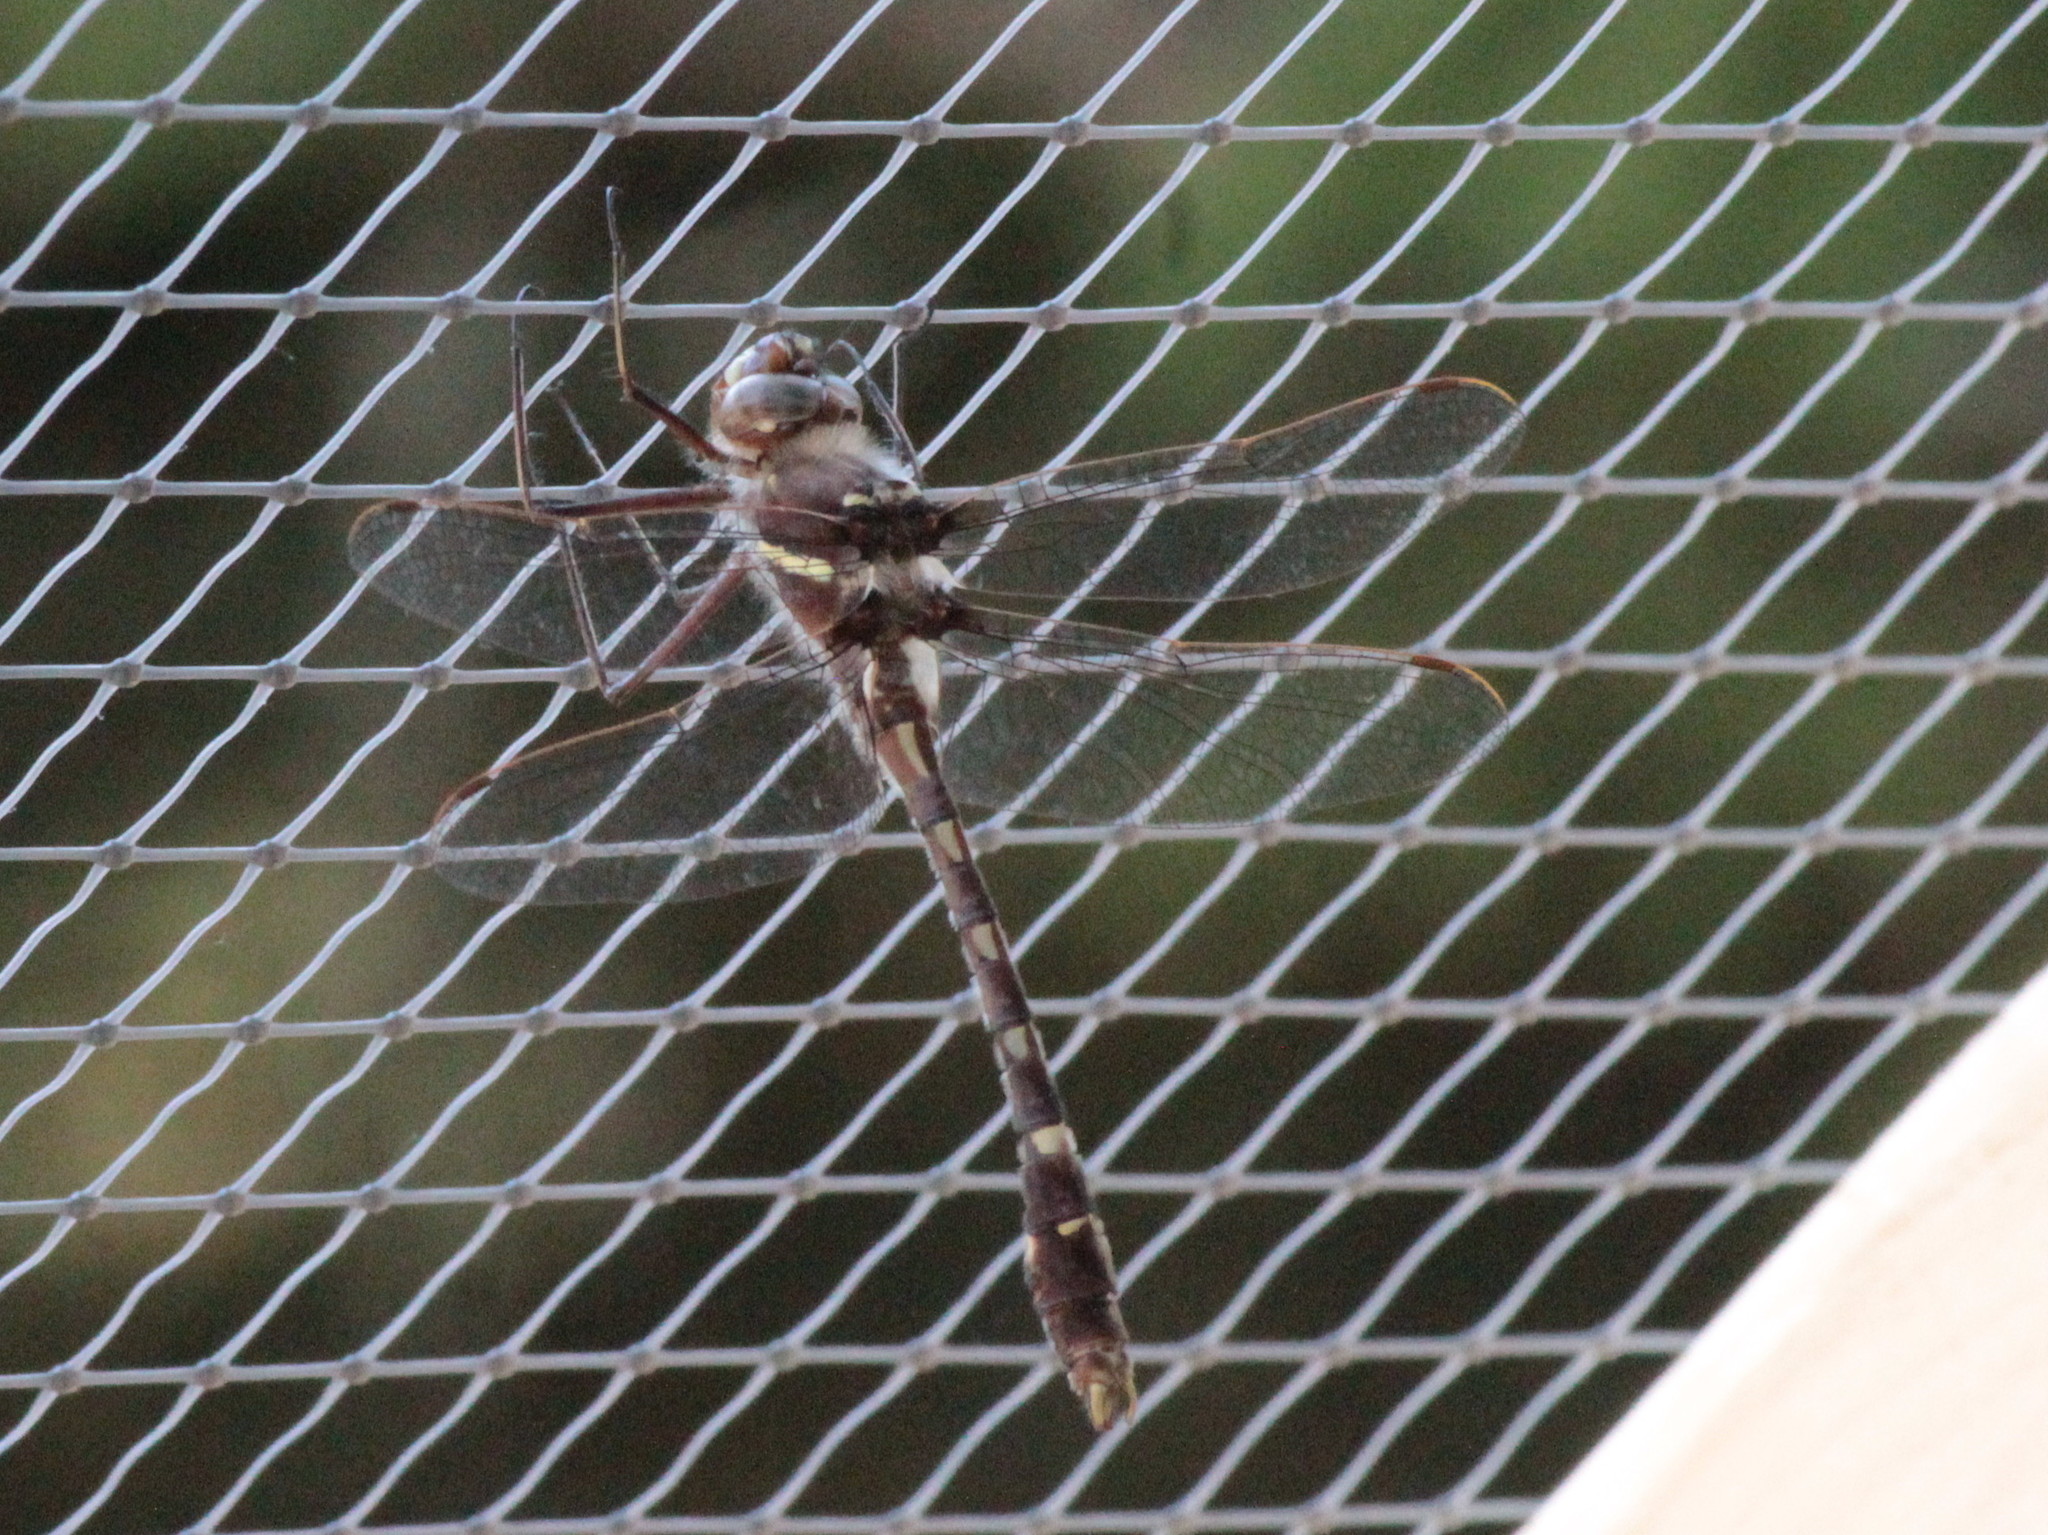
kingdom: Animalia
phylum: Arthropoda
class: Insecta
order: Odonata
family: Macromiidae
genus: Didymops
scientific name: Didymops transversa
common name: Stream cruiser
